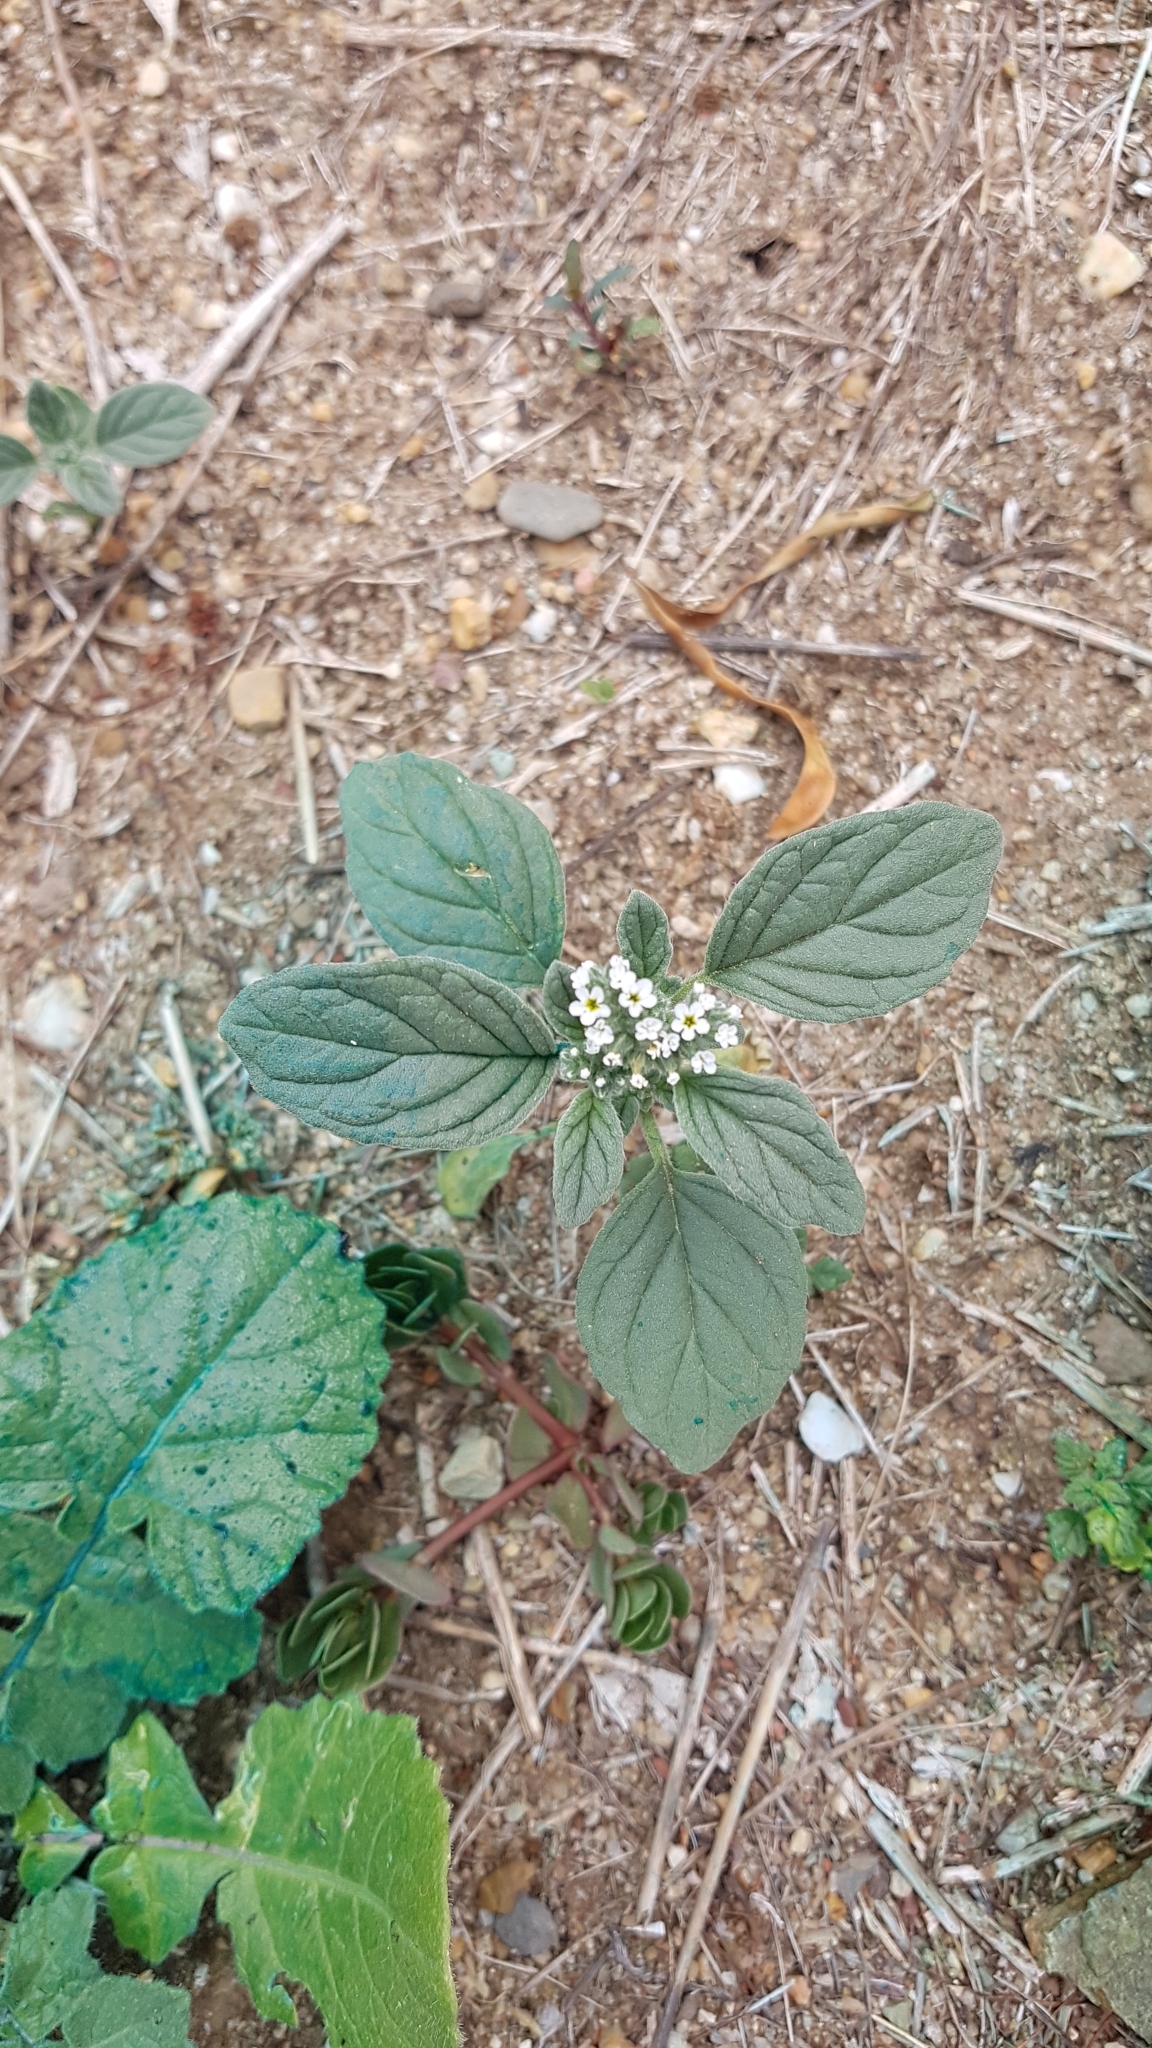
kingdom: Plantae
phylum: Tracheophyta
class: Magnoliopsida
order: Boraginales
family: Heliotropiaceae
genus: Heliotropium
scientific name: Heliotropium europaeum
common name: European heliotrope
